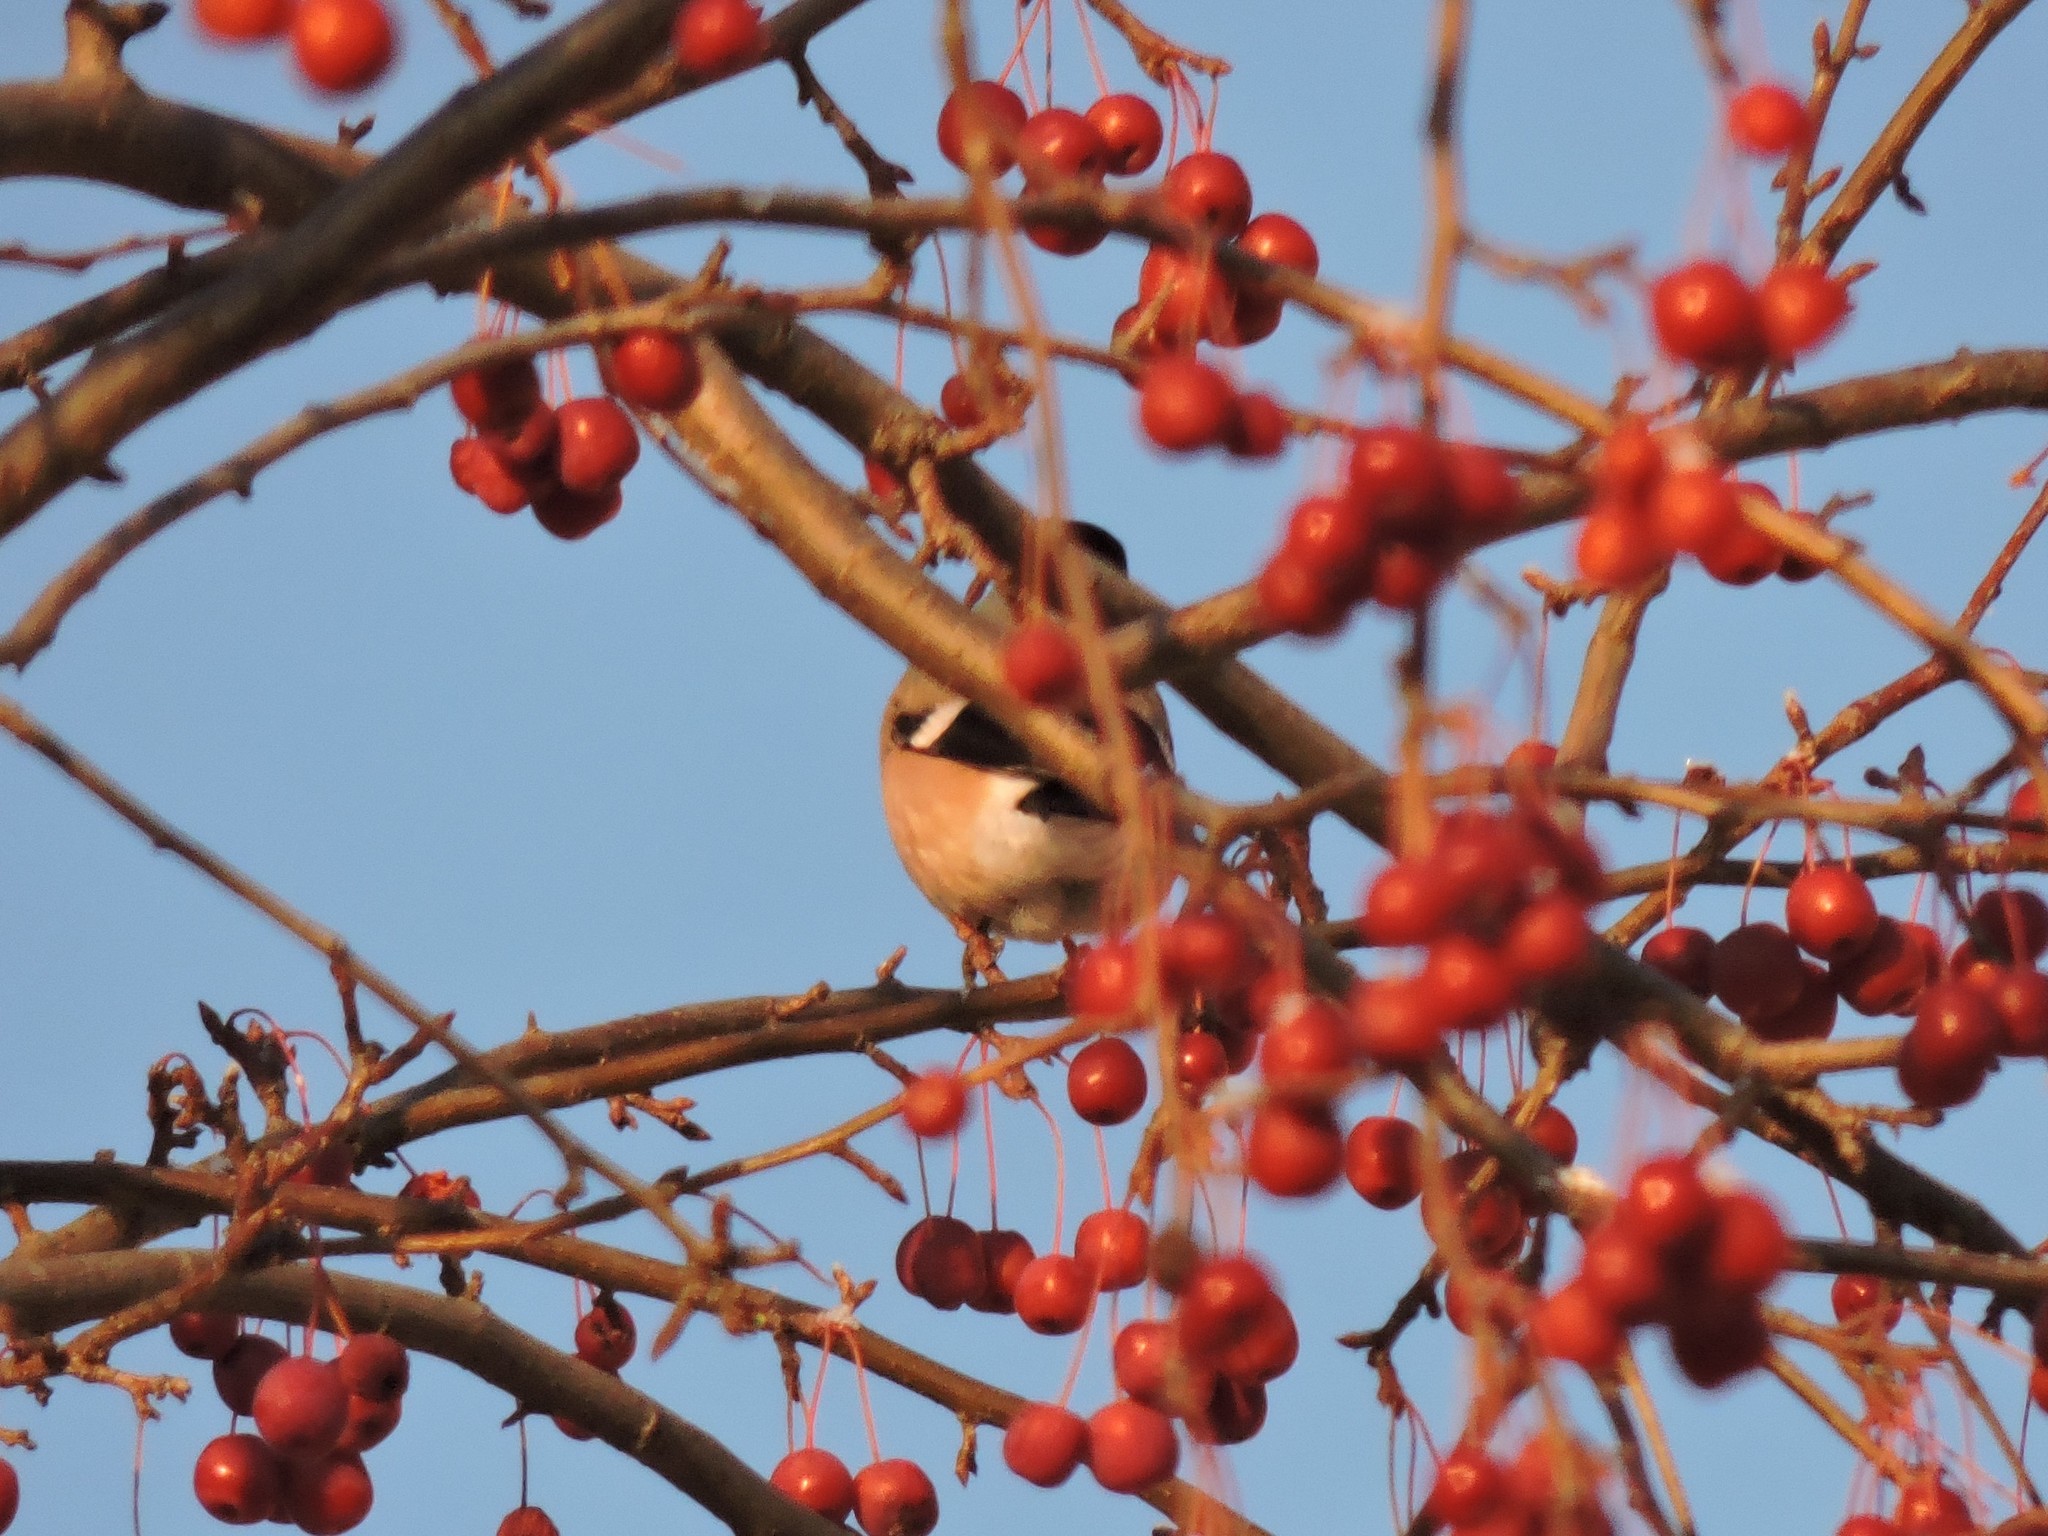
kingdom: Animalia
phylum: Chordata
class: Aves
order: Passeriformes
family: Fringillidae
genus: Pyrrhula
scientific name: Pyrrhula pyrrhula
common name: Eurasian bullfinch
